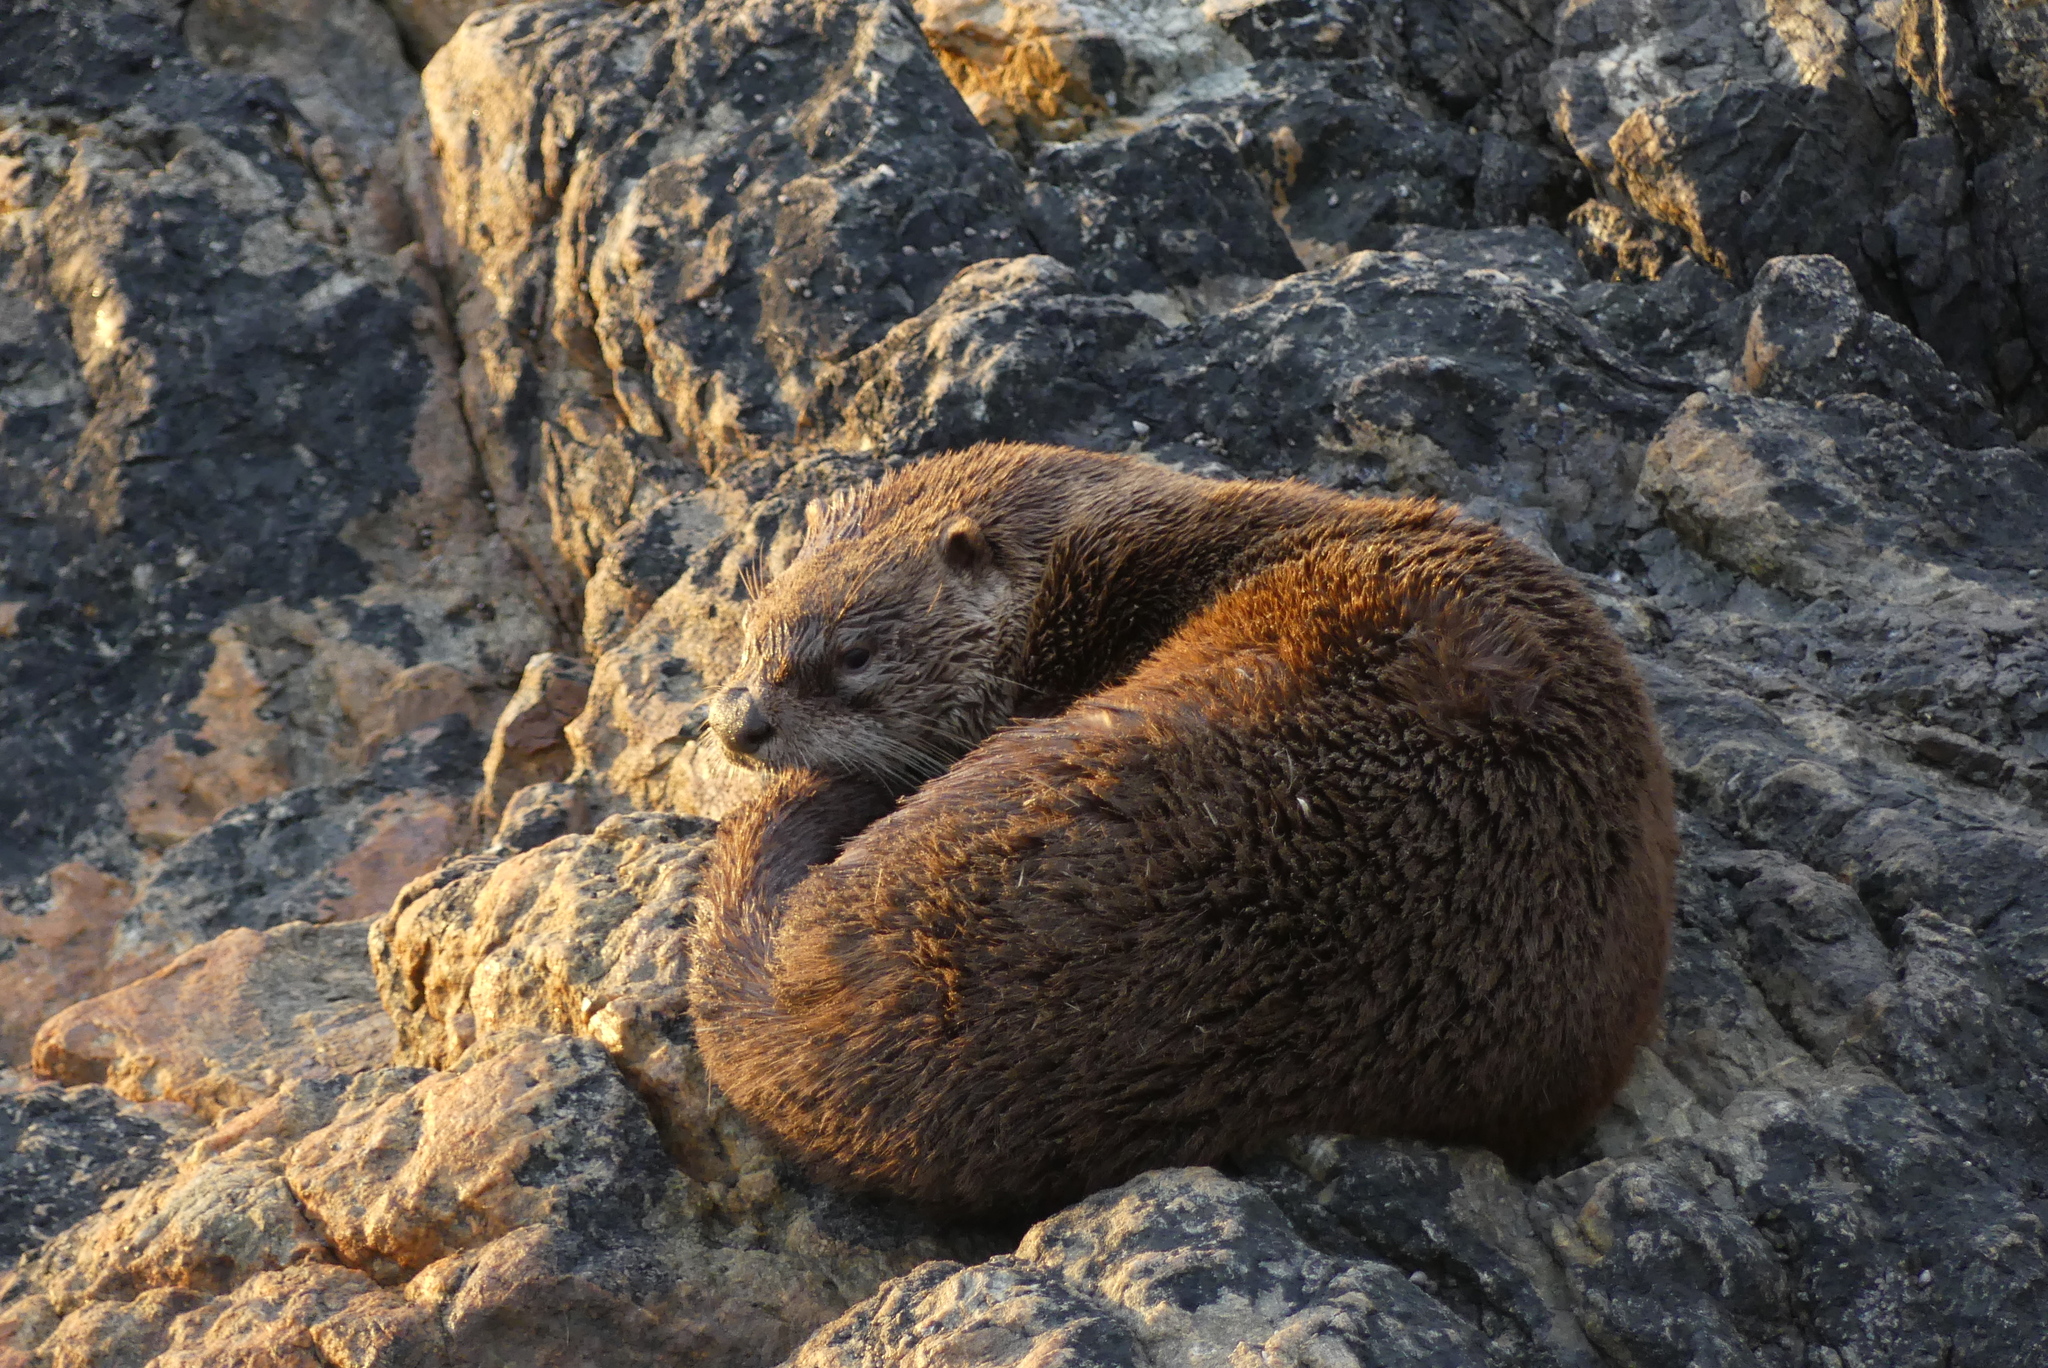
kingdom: Animalia
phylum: Chordata
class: Mammalia
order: Carnivora
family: Mustelidae
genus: Lontra
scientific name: Lontra canadensis
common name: North american river otter
